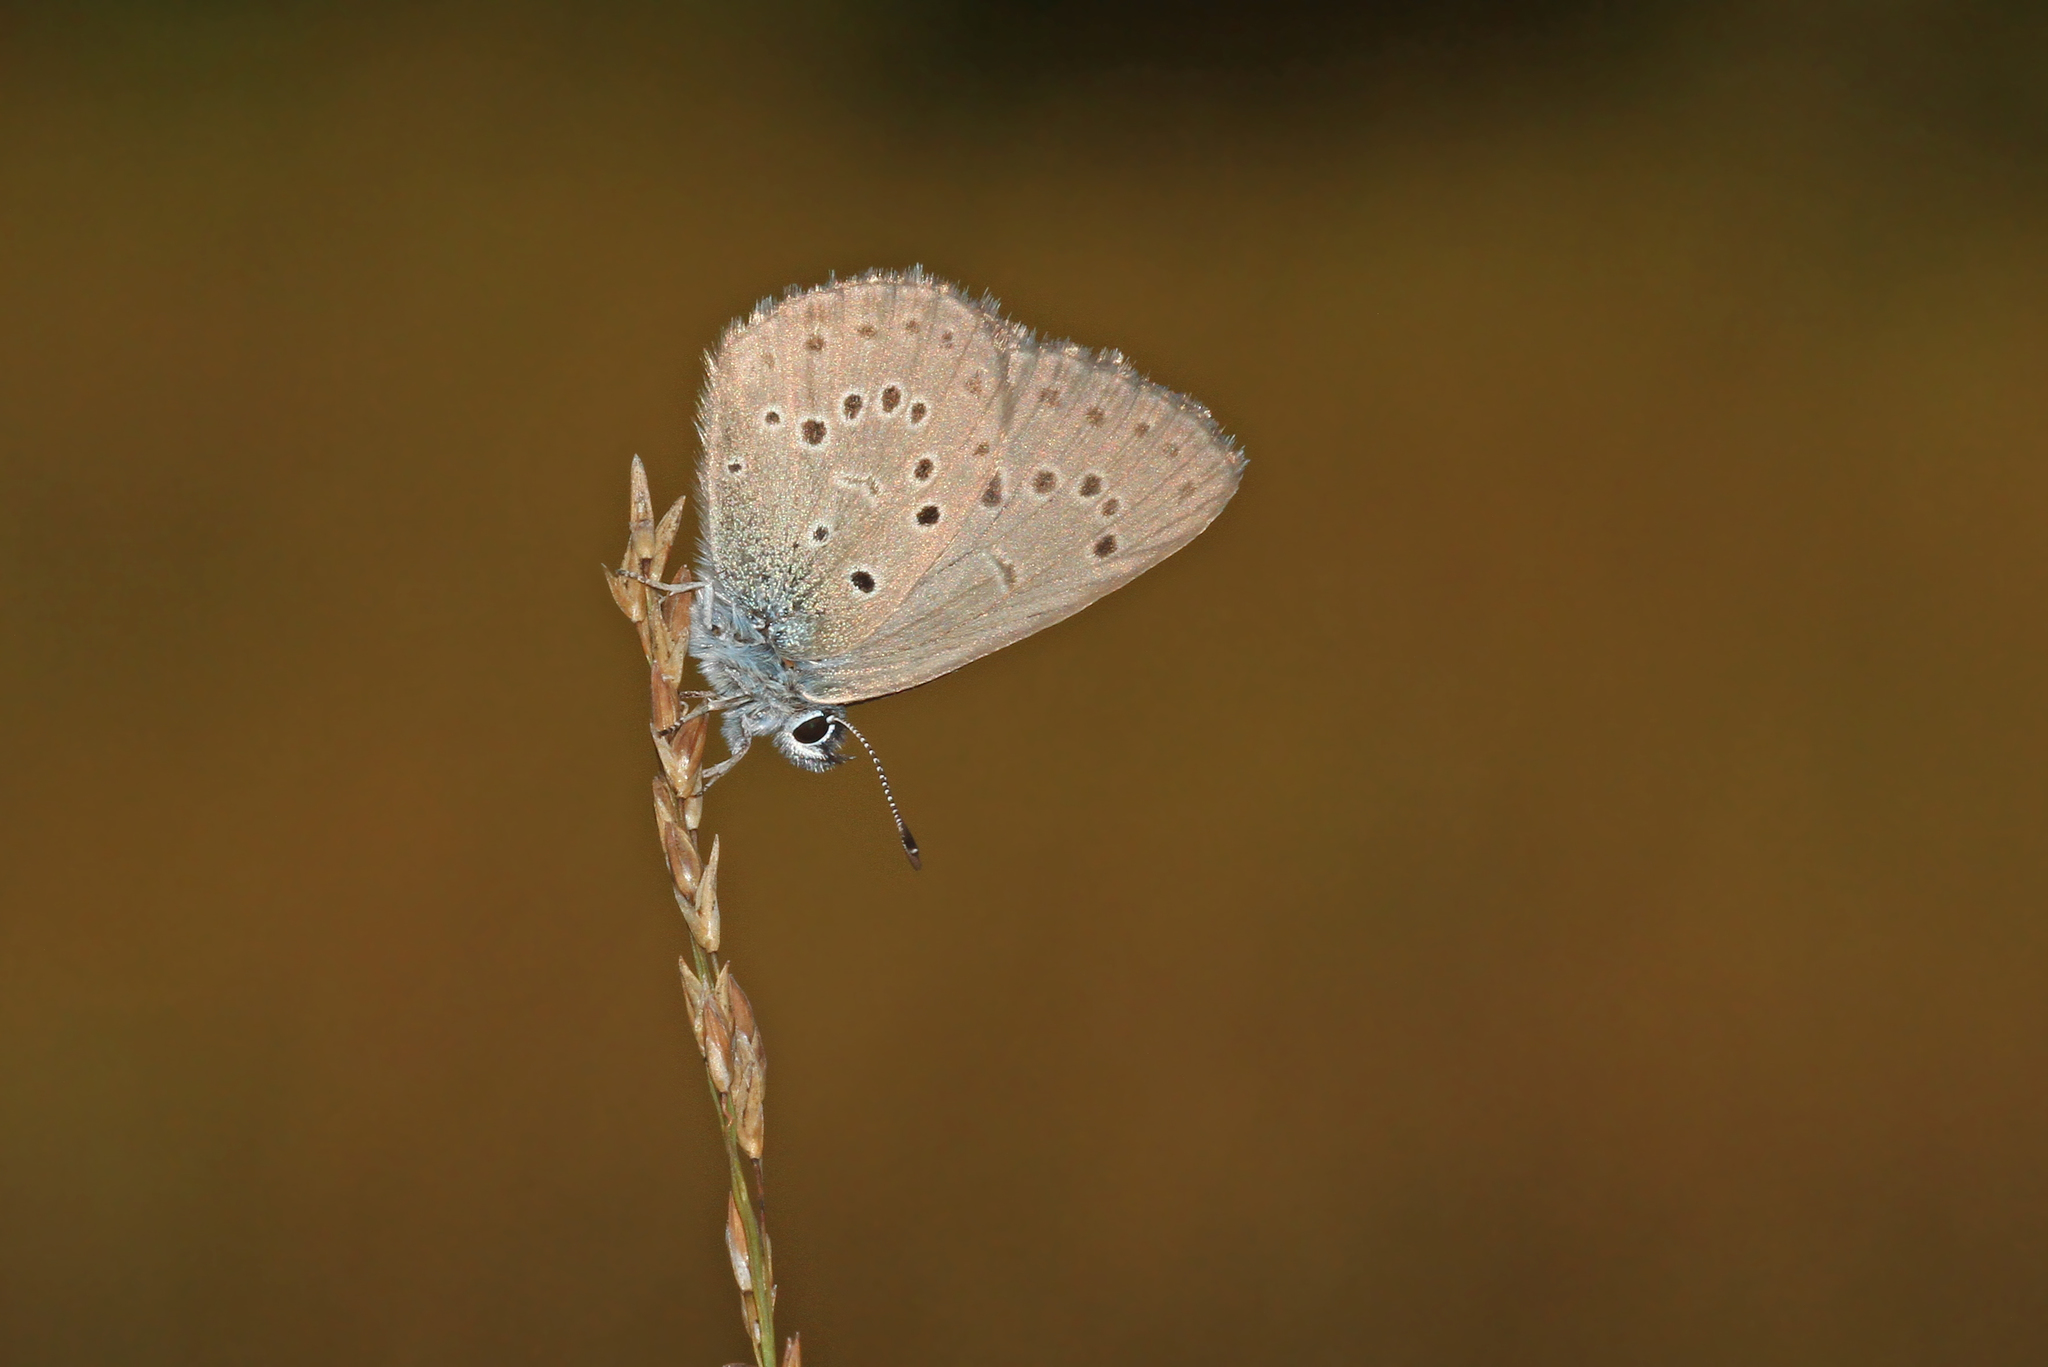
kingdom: Animalia
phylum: Arthropoda
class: Insecta
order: Lepidoptera
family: Lycaenidae
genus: Maculinea
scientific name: Maculinea alcon
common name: Alcon blue
